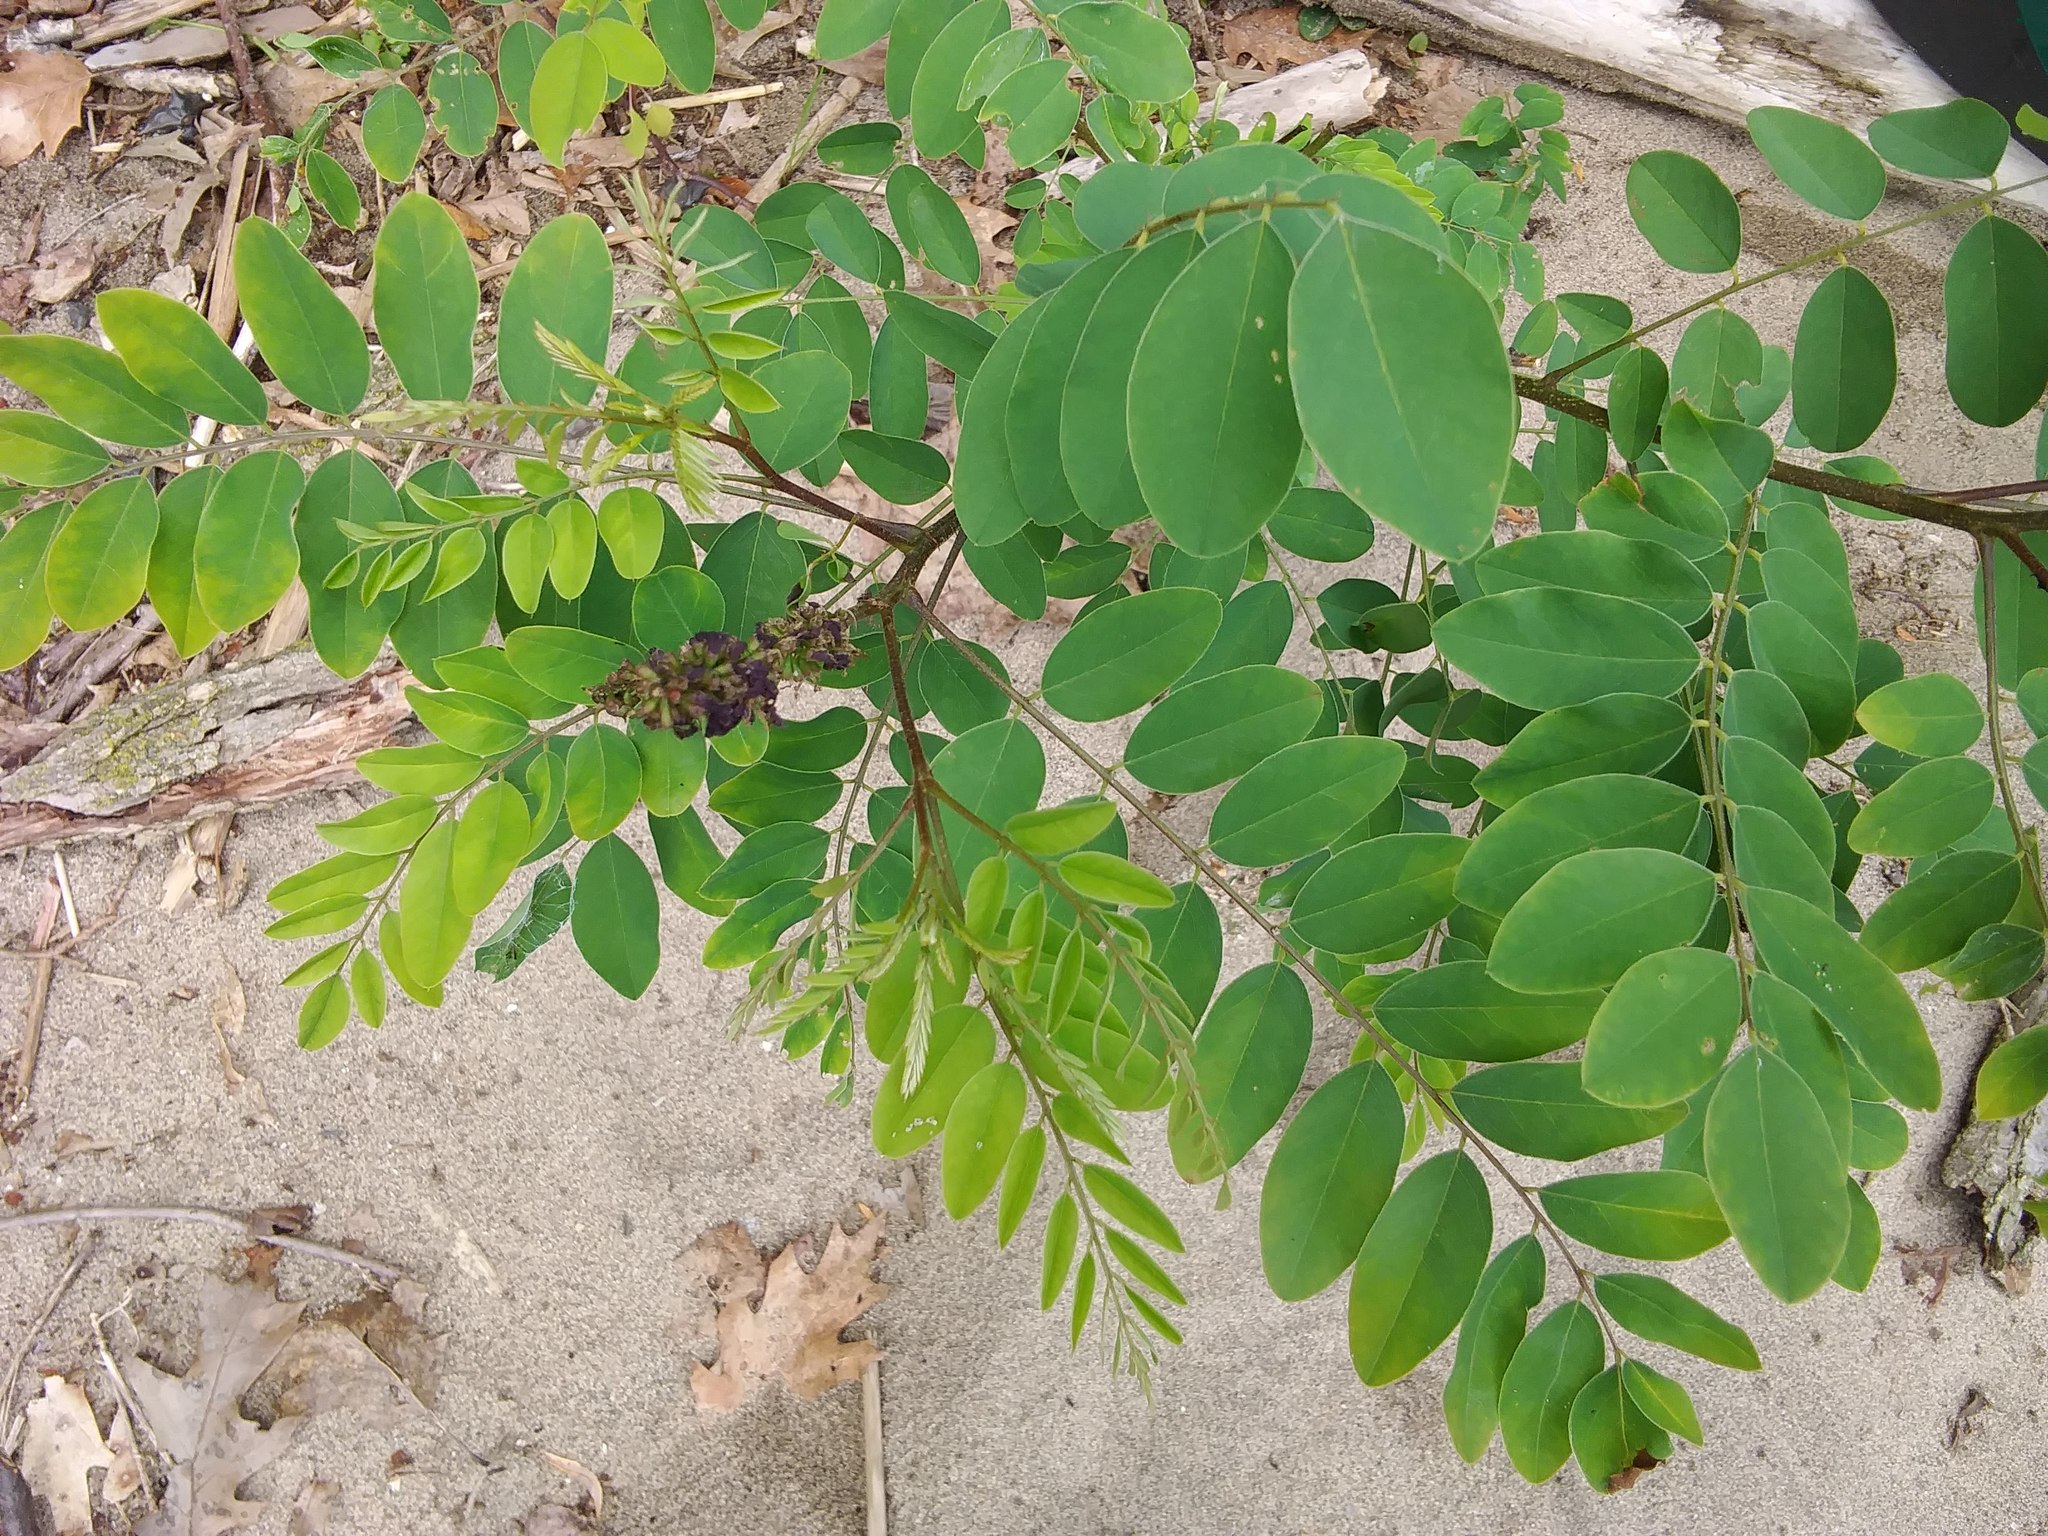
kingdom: Plantae
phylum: Tracheophyta
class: Magnoliopsida
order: Fabales
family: Fabaceae
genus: Amorpha
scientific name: Amorpha fruticosa
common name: False indigo
